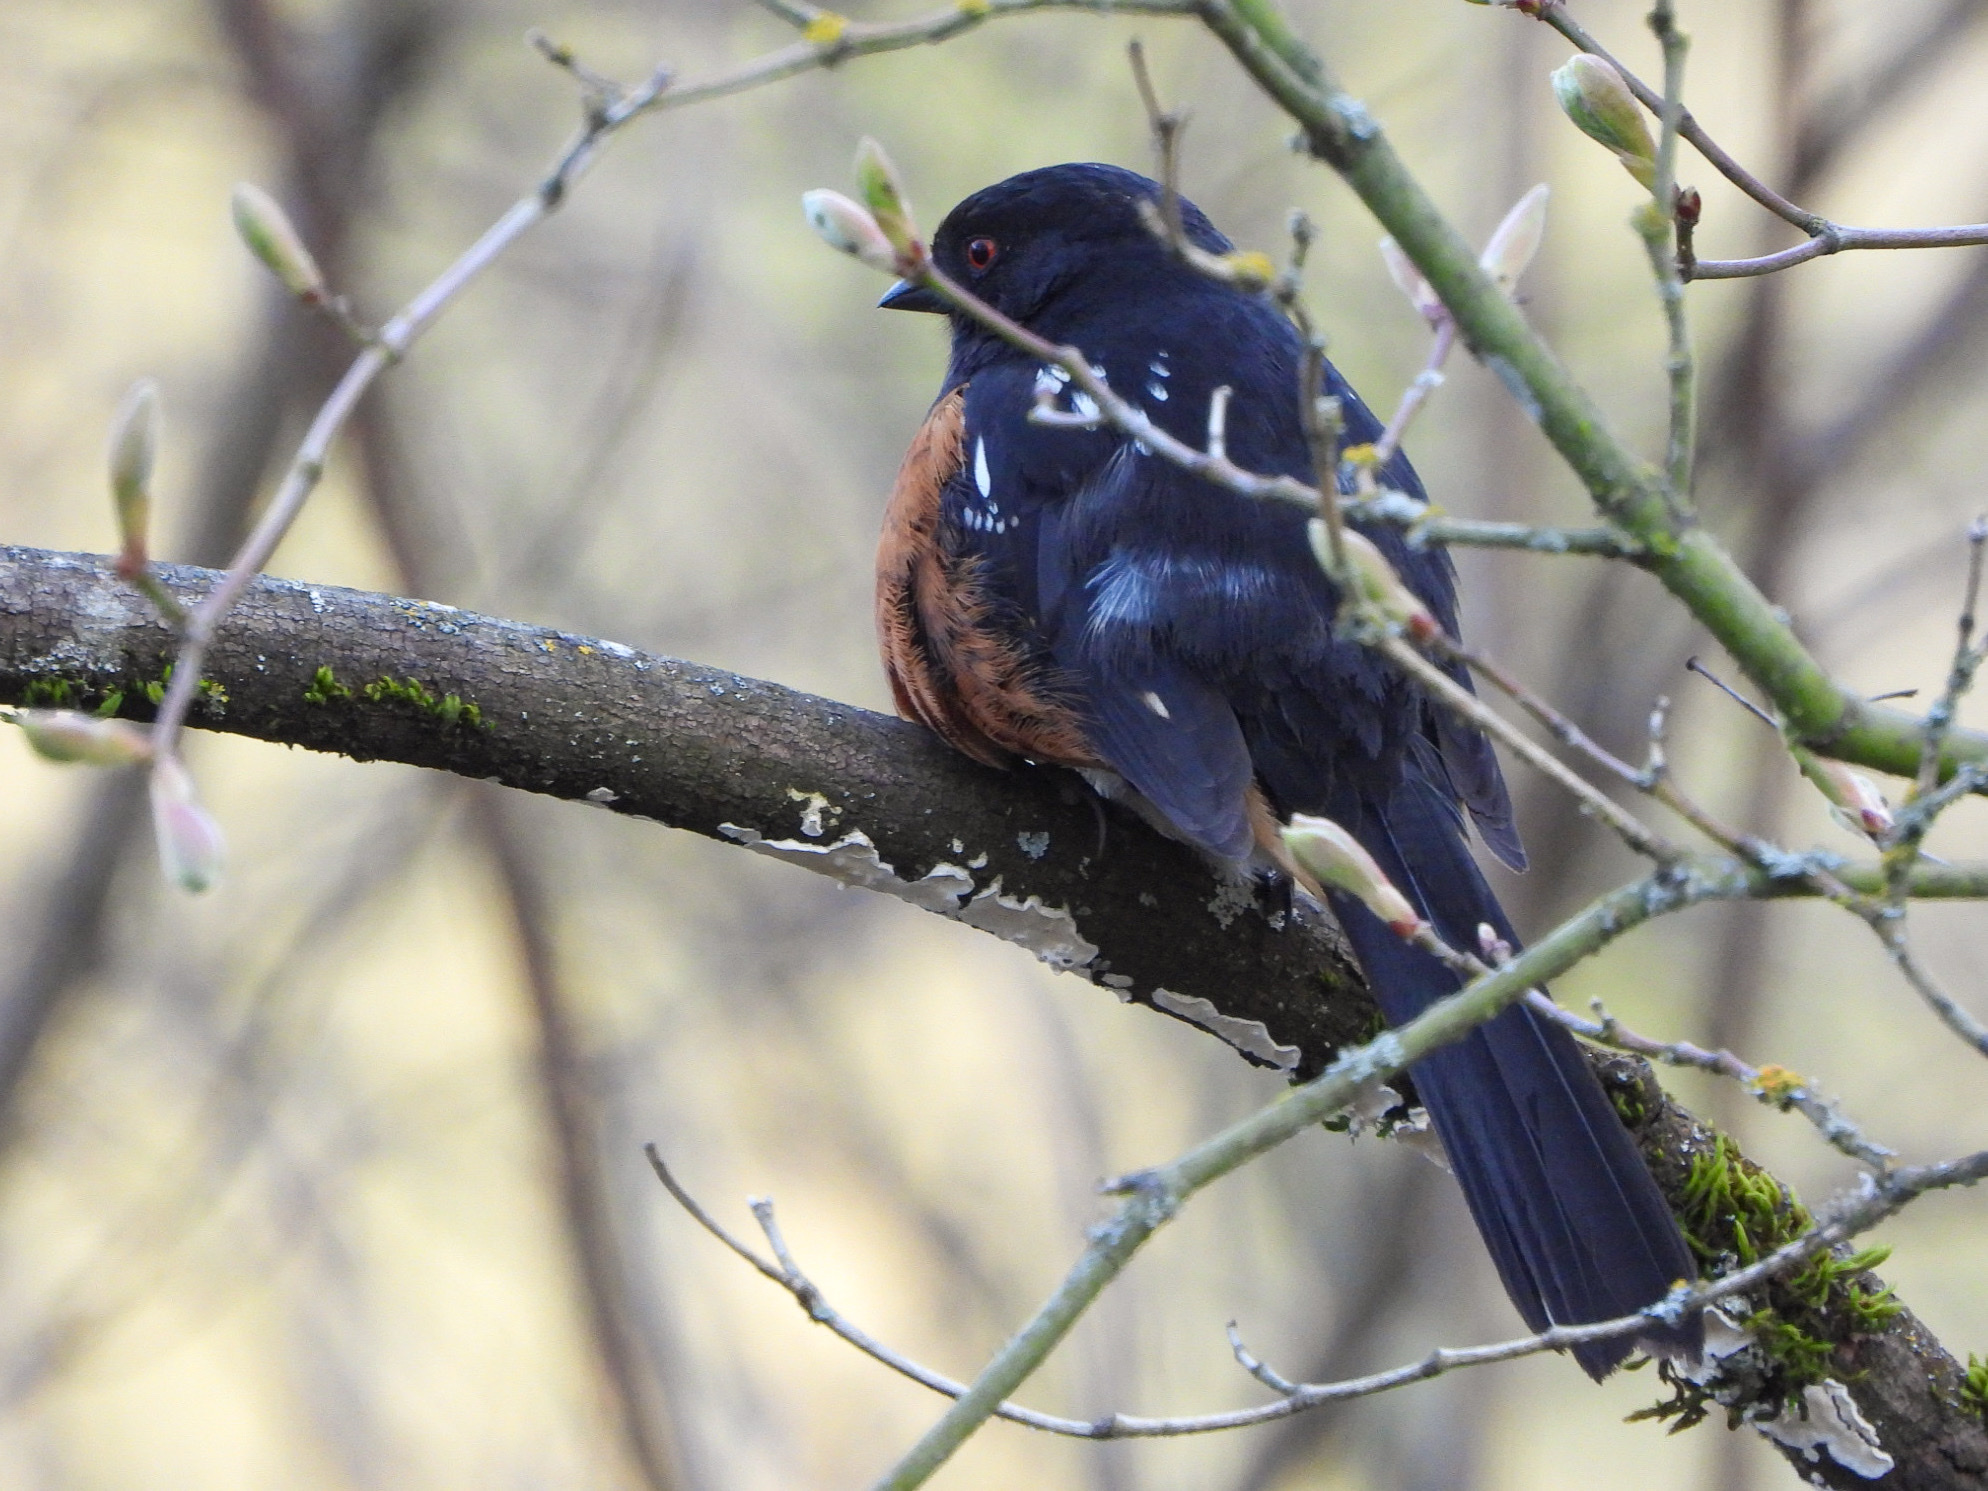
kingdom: Animalia
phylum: Chordata
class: Aves
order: Passeriformes
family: Passerellidae
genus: Pipilo
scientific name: Pipilo maculatus
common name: Spotted towhee
